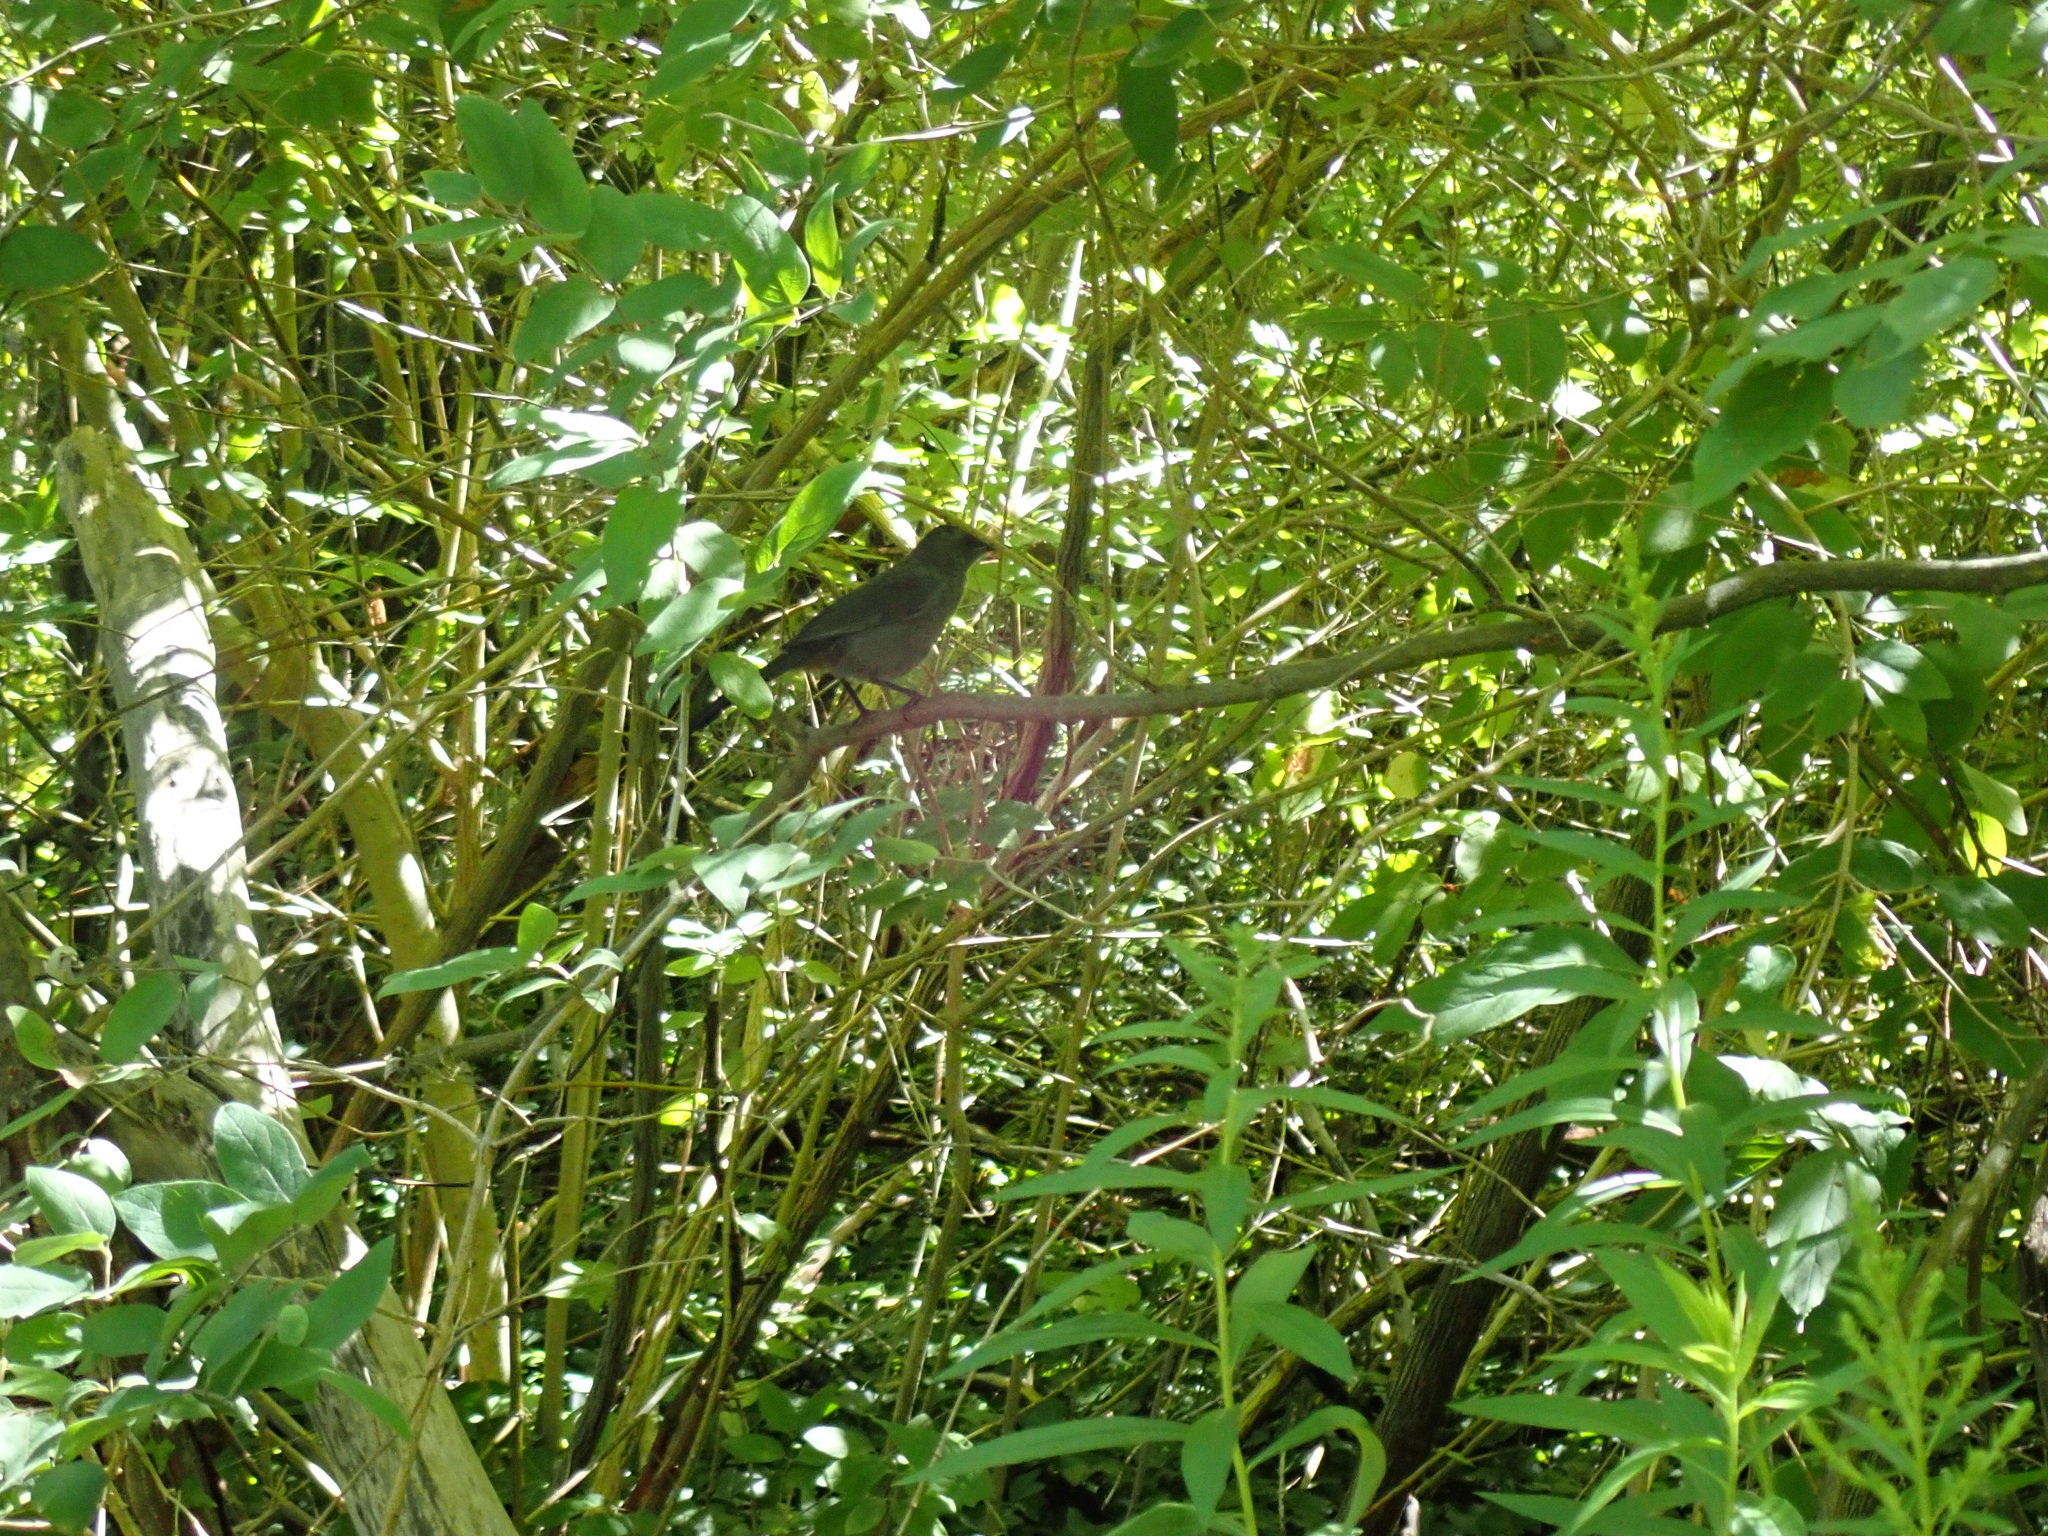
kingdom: Animalia
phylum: Chordata
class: Aves
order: Passeriformes
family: Mimidae
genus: Dumetella
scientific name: Dumetella carolinensis
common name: Gray catbird
